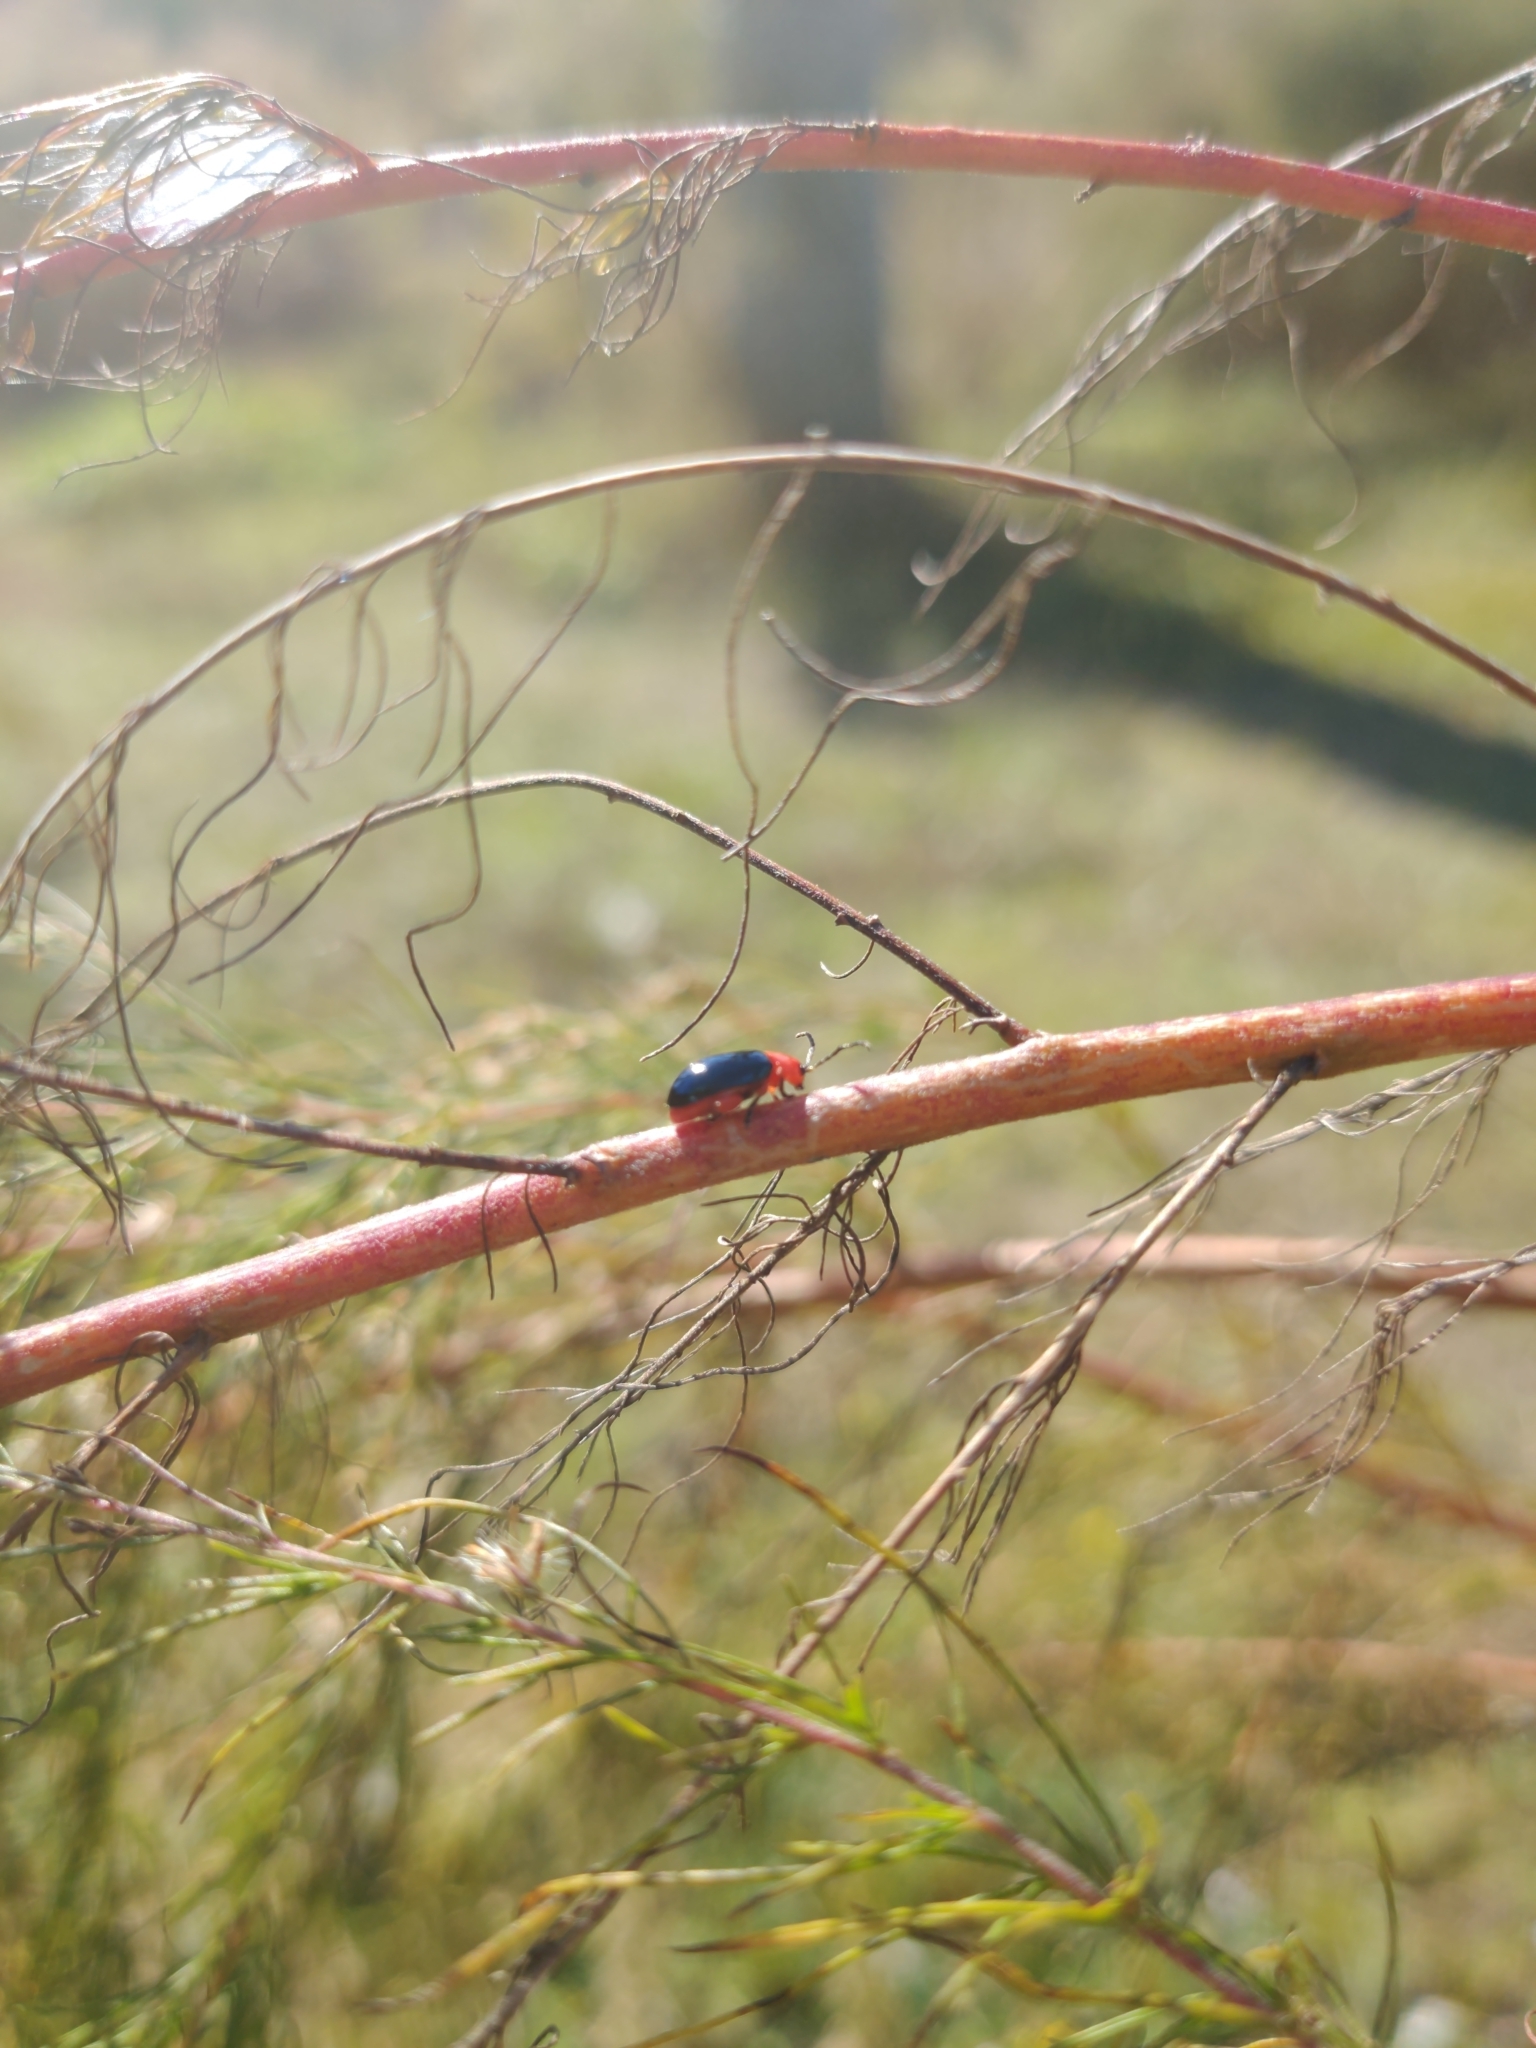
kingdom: Animalia
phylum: Arthropoda
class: Insecta
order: Coleoptera
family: Chrysomelidae
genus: Asphaera
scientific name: Asphaera lustrans
